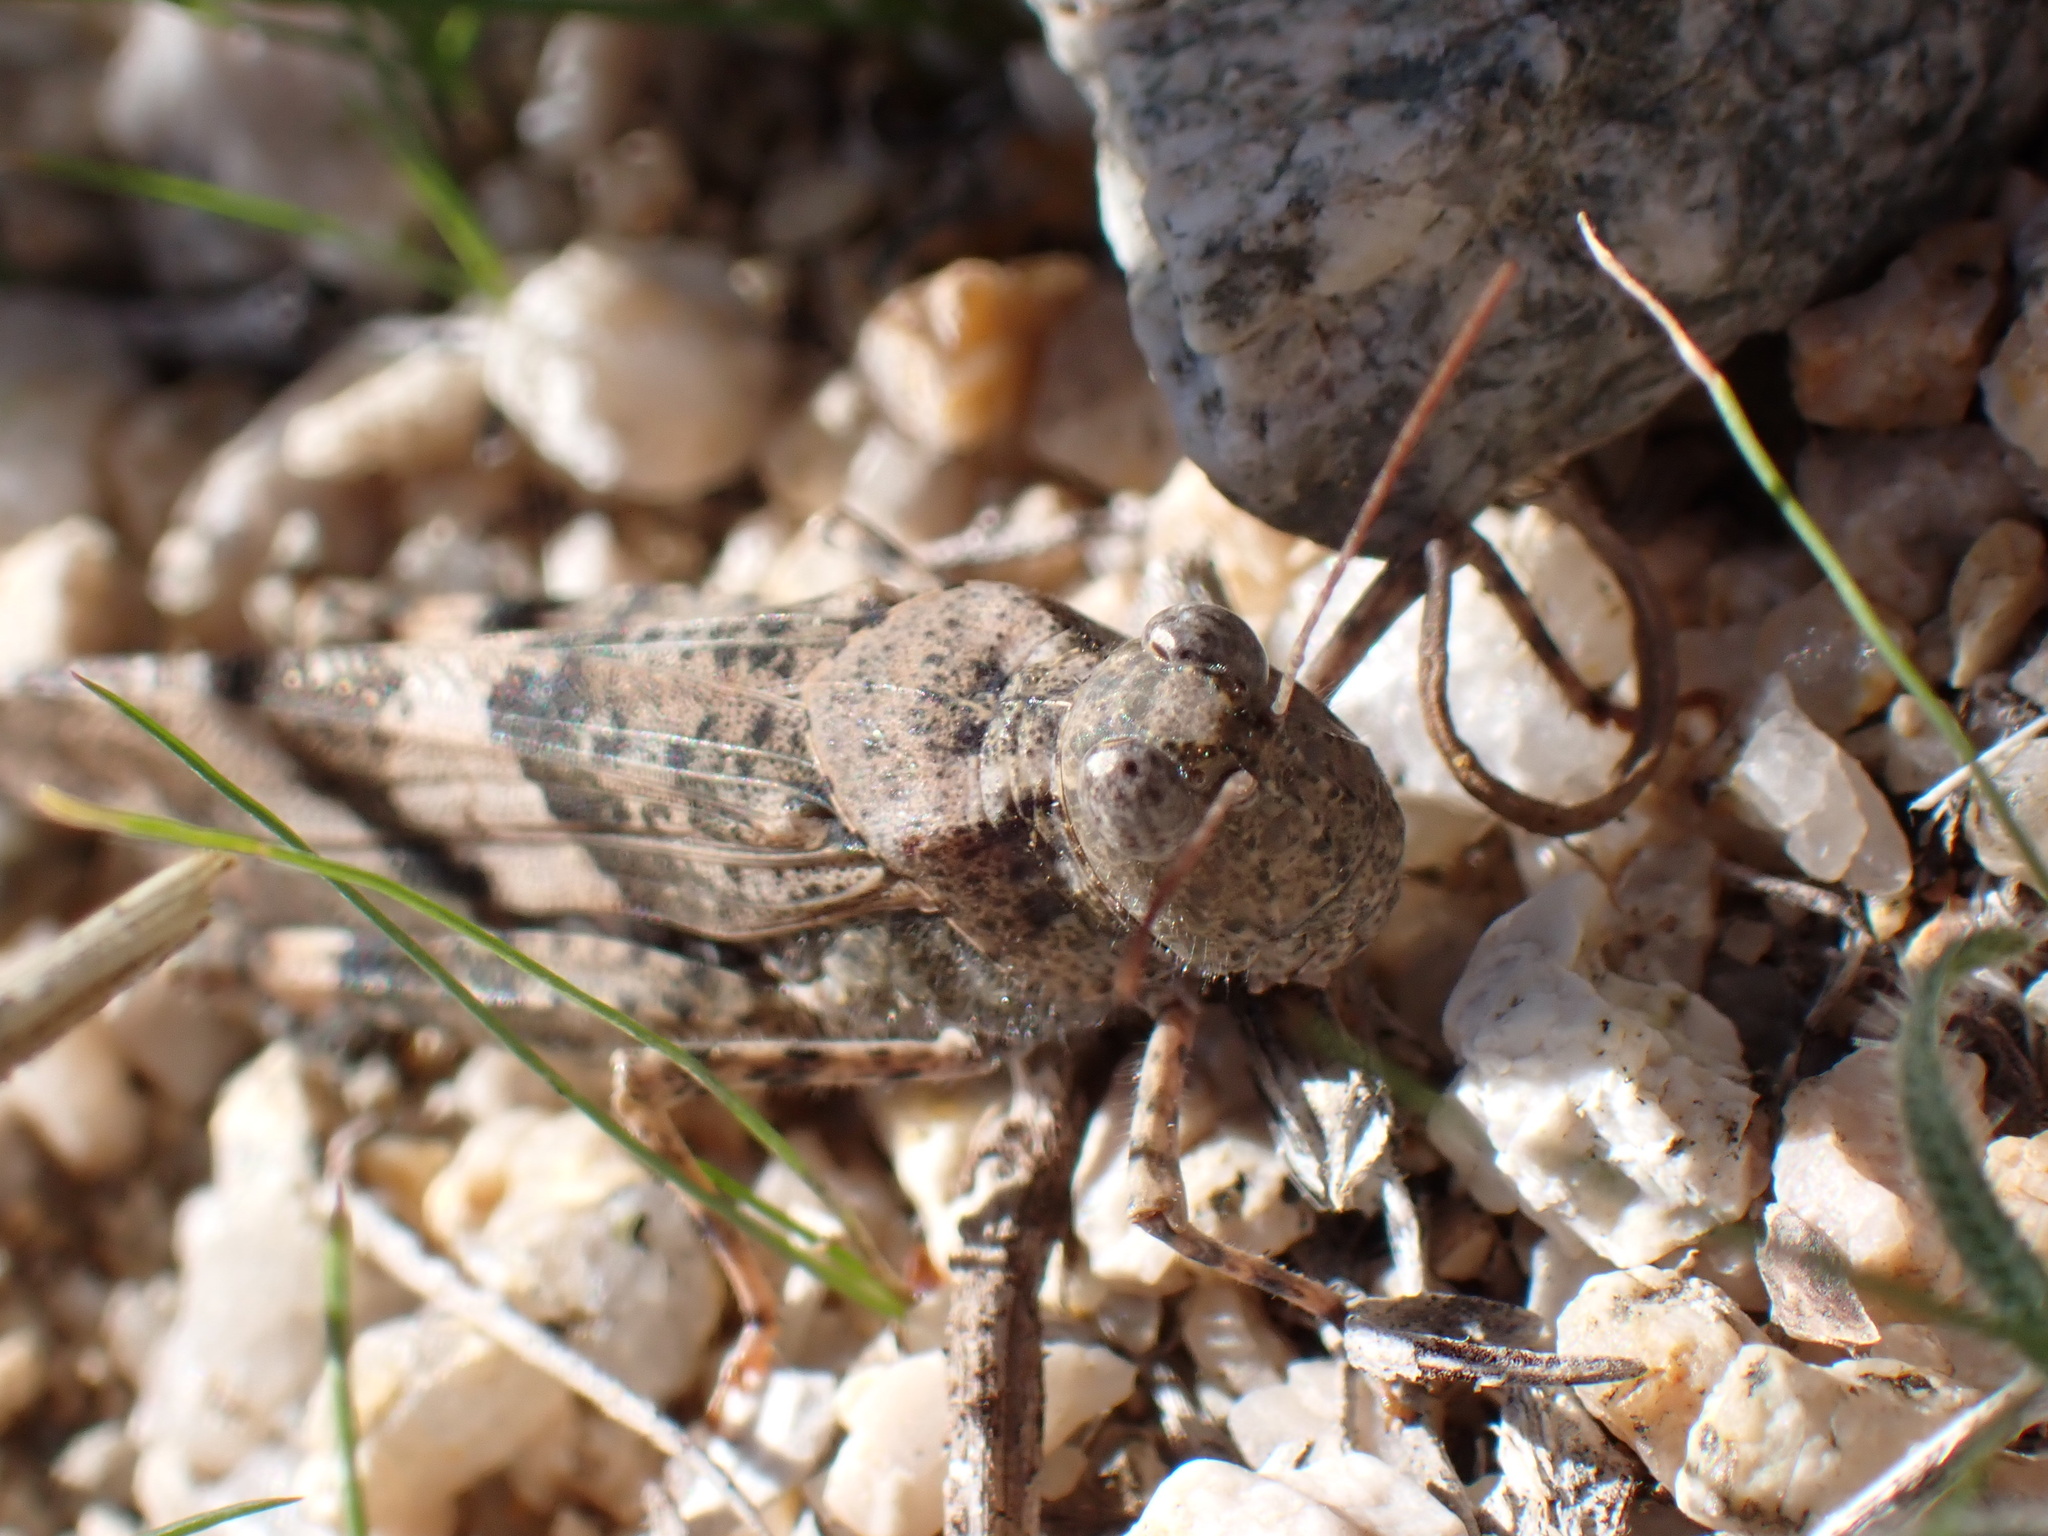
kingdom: Animalia
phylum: Arthropoda
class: Insecta
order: Orthoptera
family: Acrididae
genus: Trimerotropis
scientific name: Trimerotropis pallidipennis
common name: Pallid-winged grasshopper
